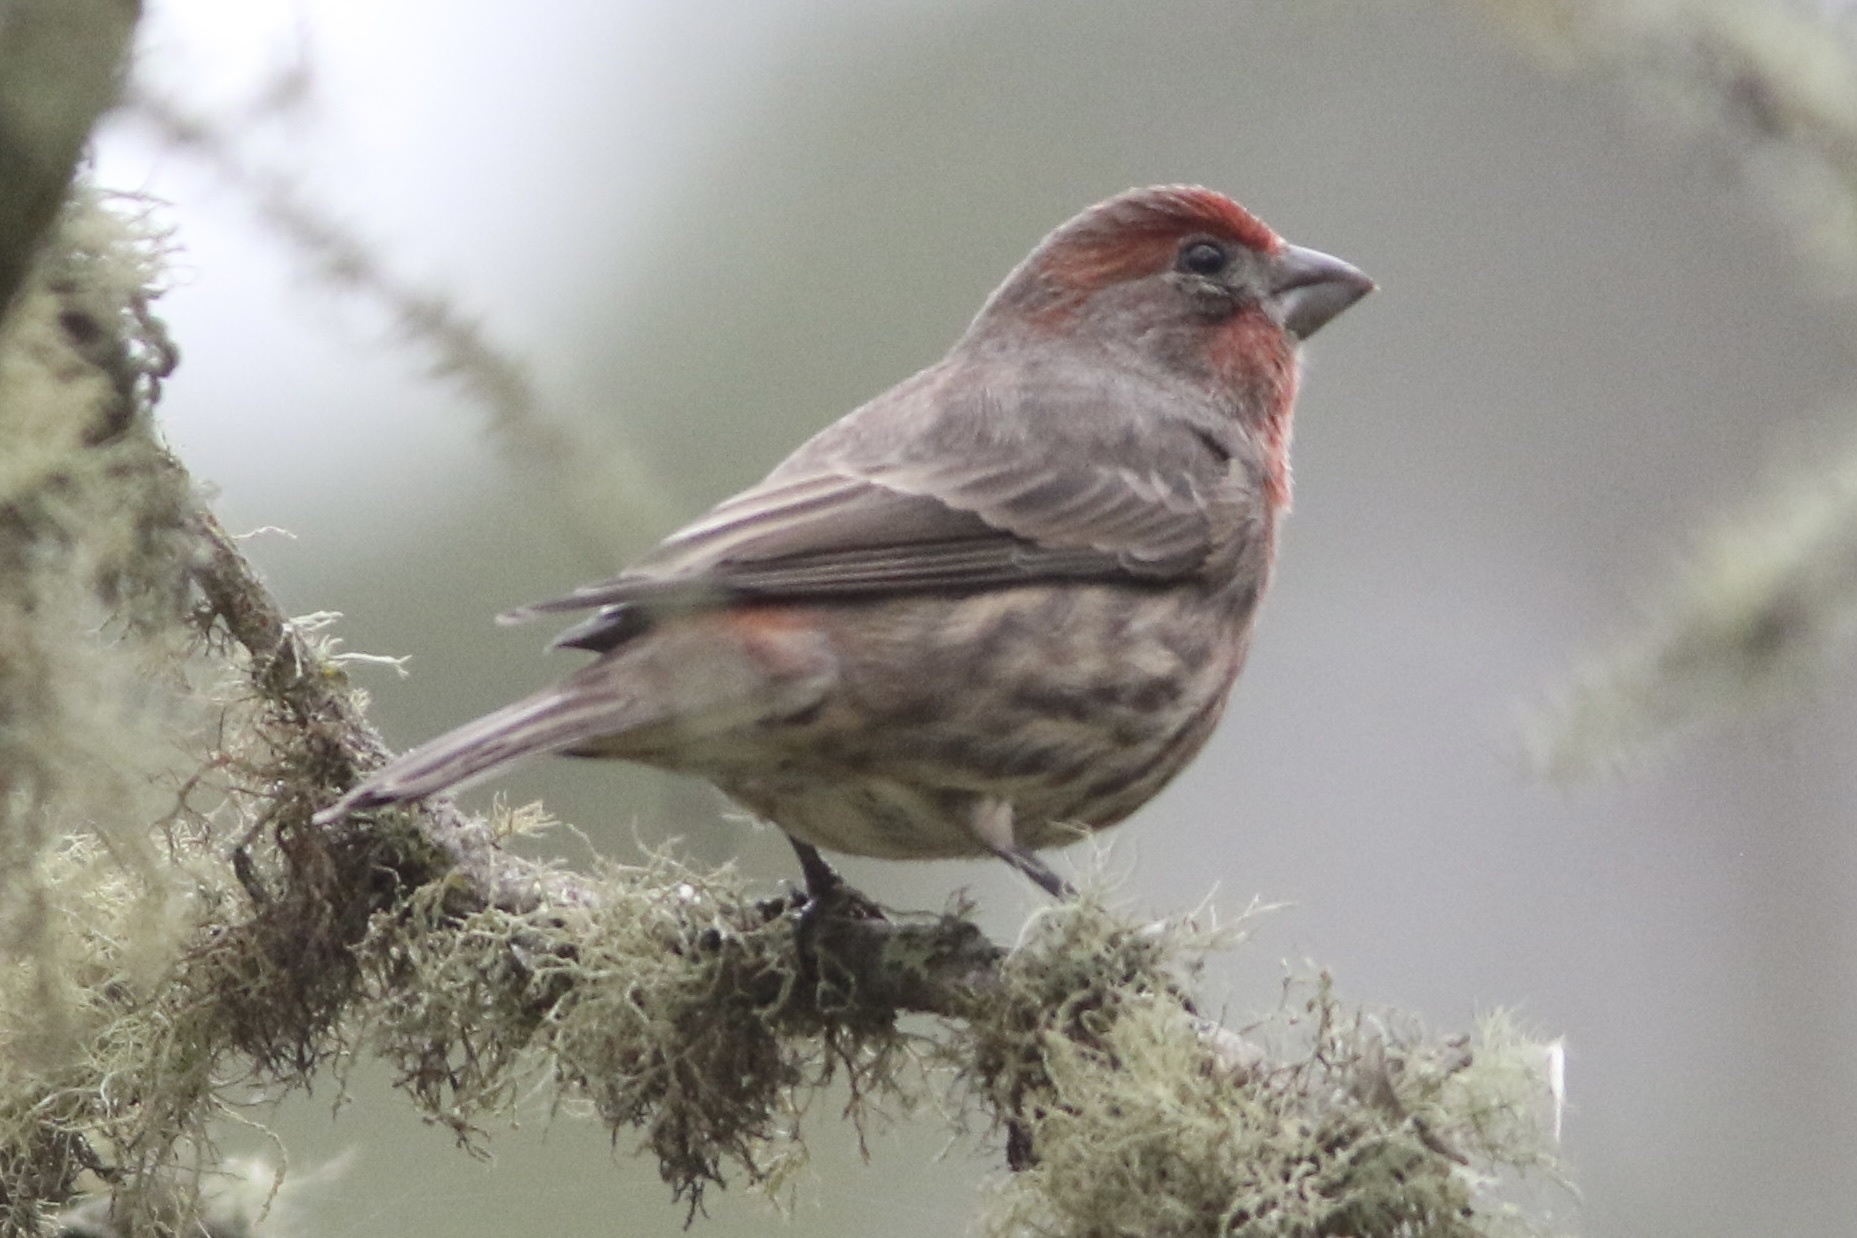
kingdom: Animalia
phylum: Chordata
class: Aves
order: Passeriformes
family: Fringillidae
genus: Haemorhous
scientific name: Haemorhous mexicanus
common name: House finch
